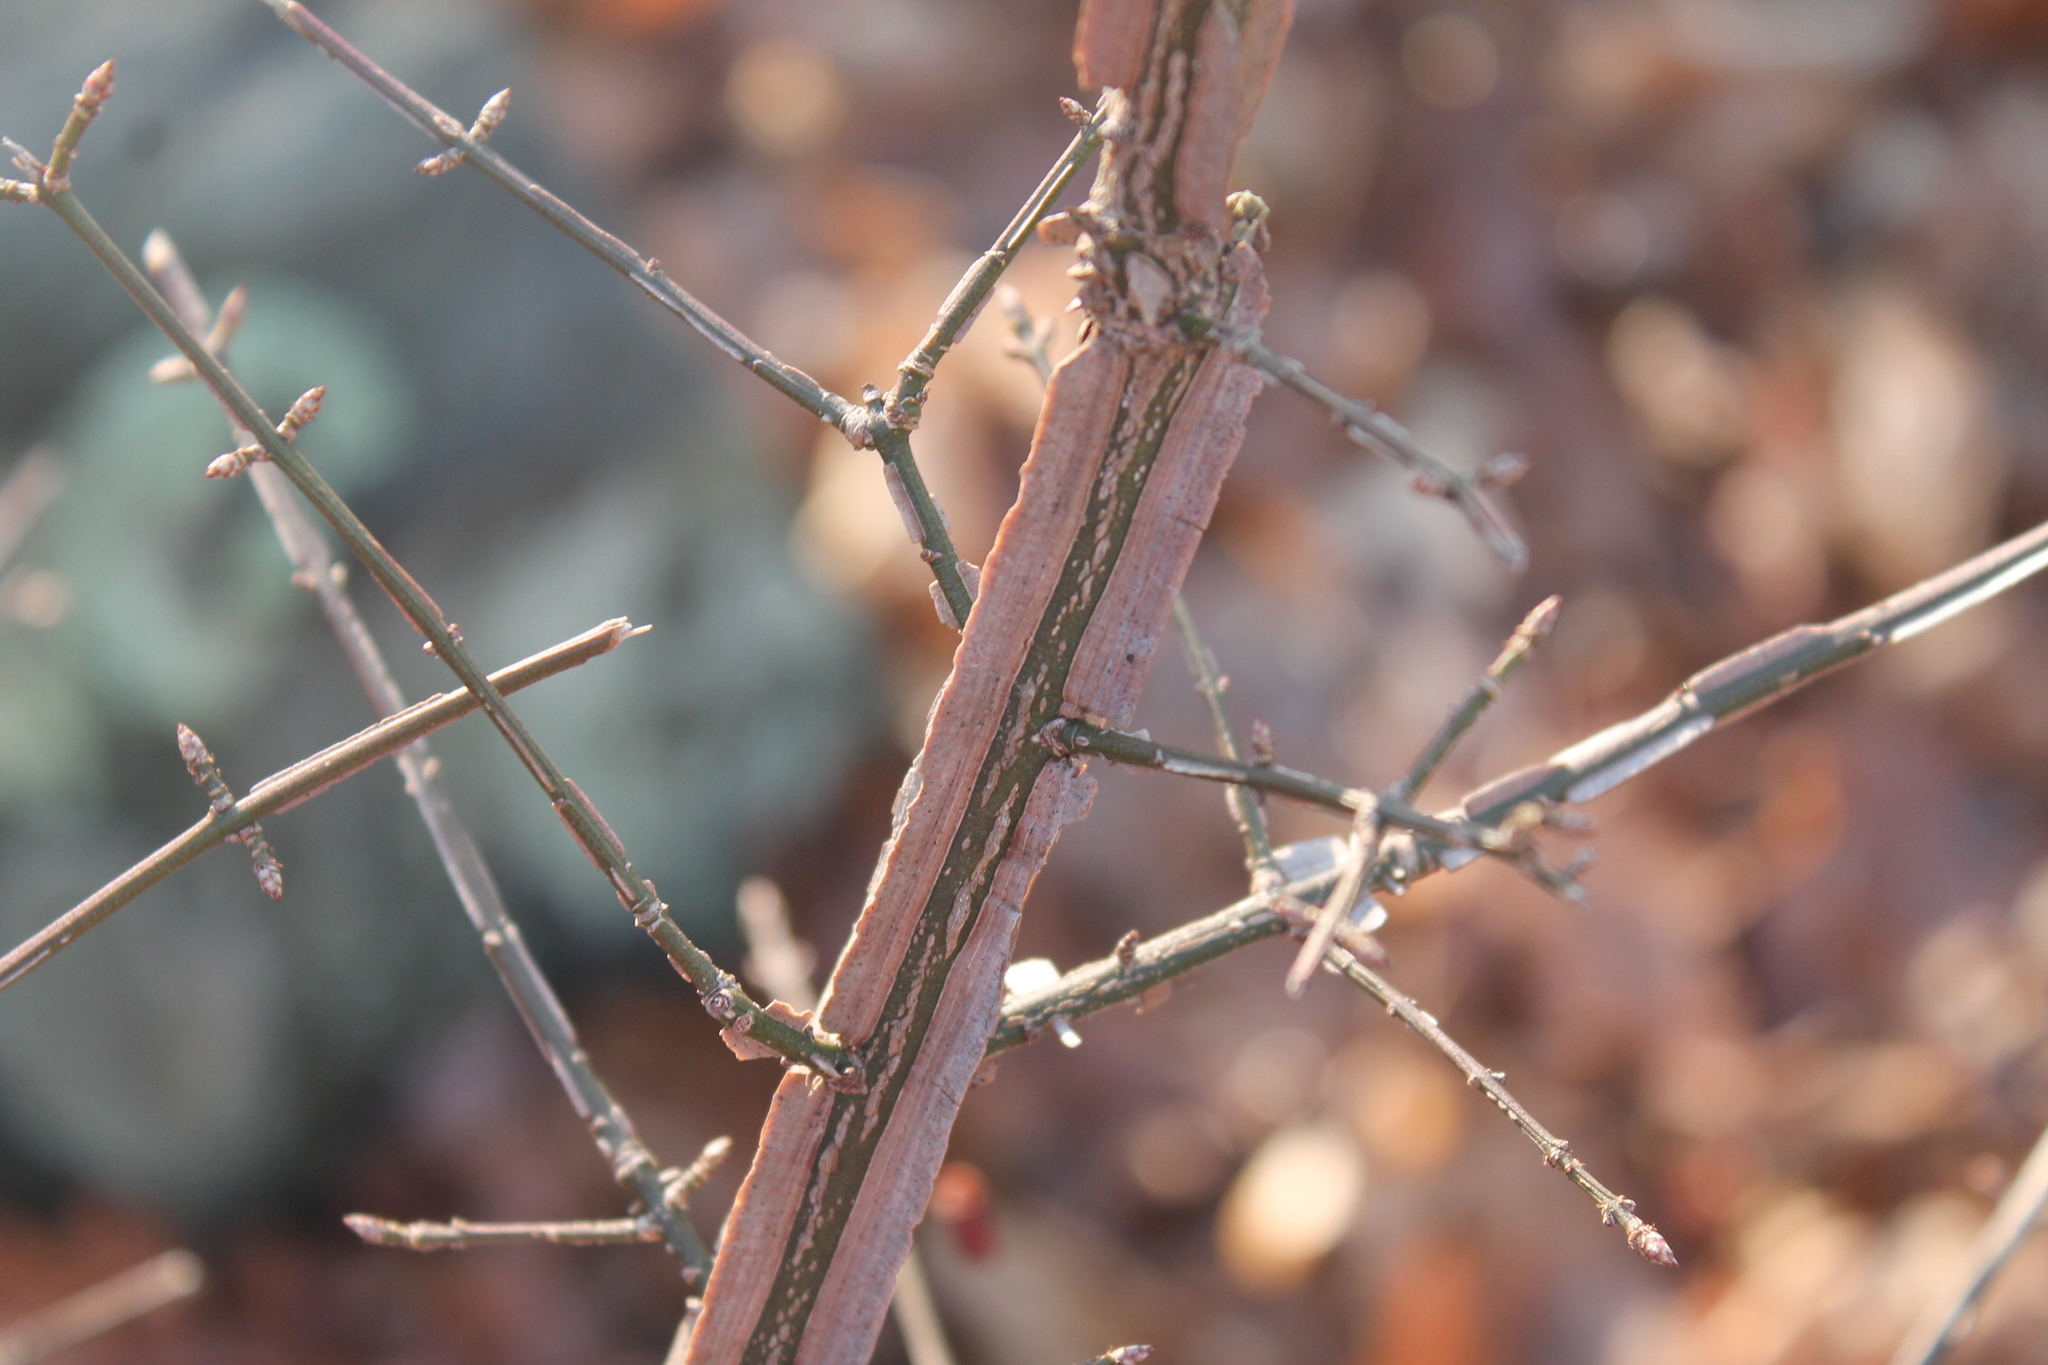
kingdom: Plantae
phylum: Tracheophyta
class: Magnoliopsida
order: Celastrales
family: Celastraceae
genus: Euonymus
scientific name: Euonymus alatus
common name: Winged euonymus
